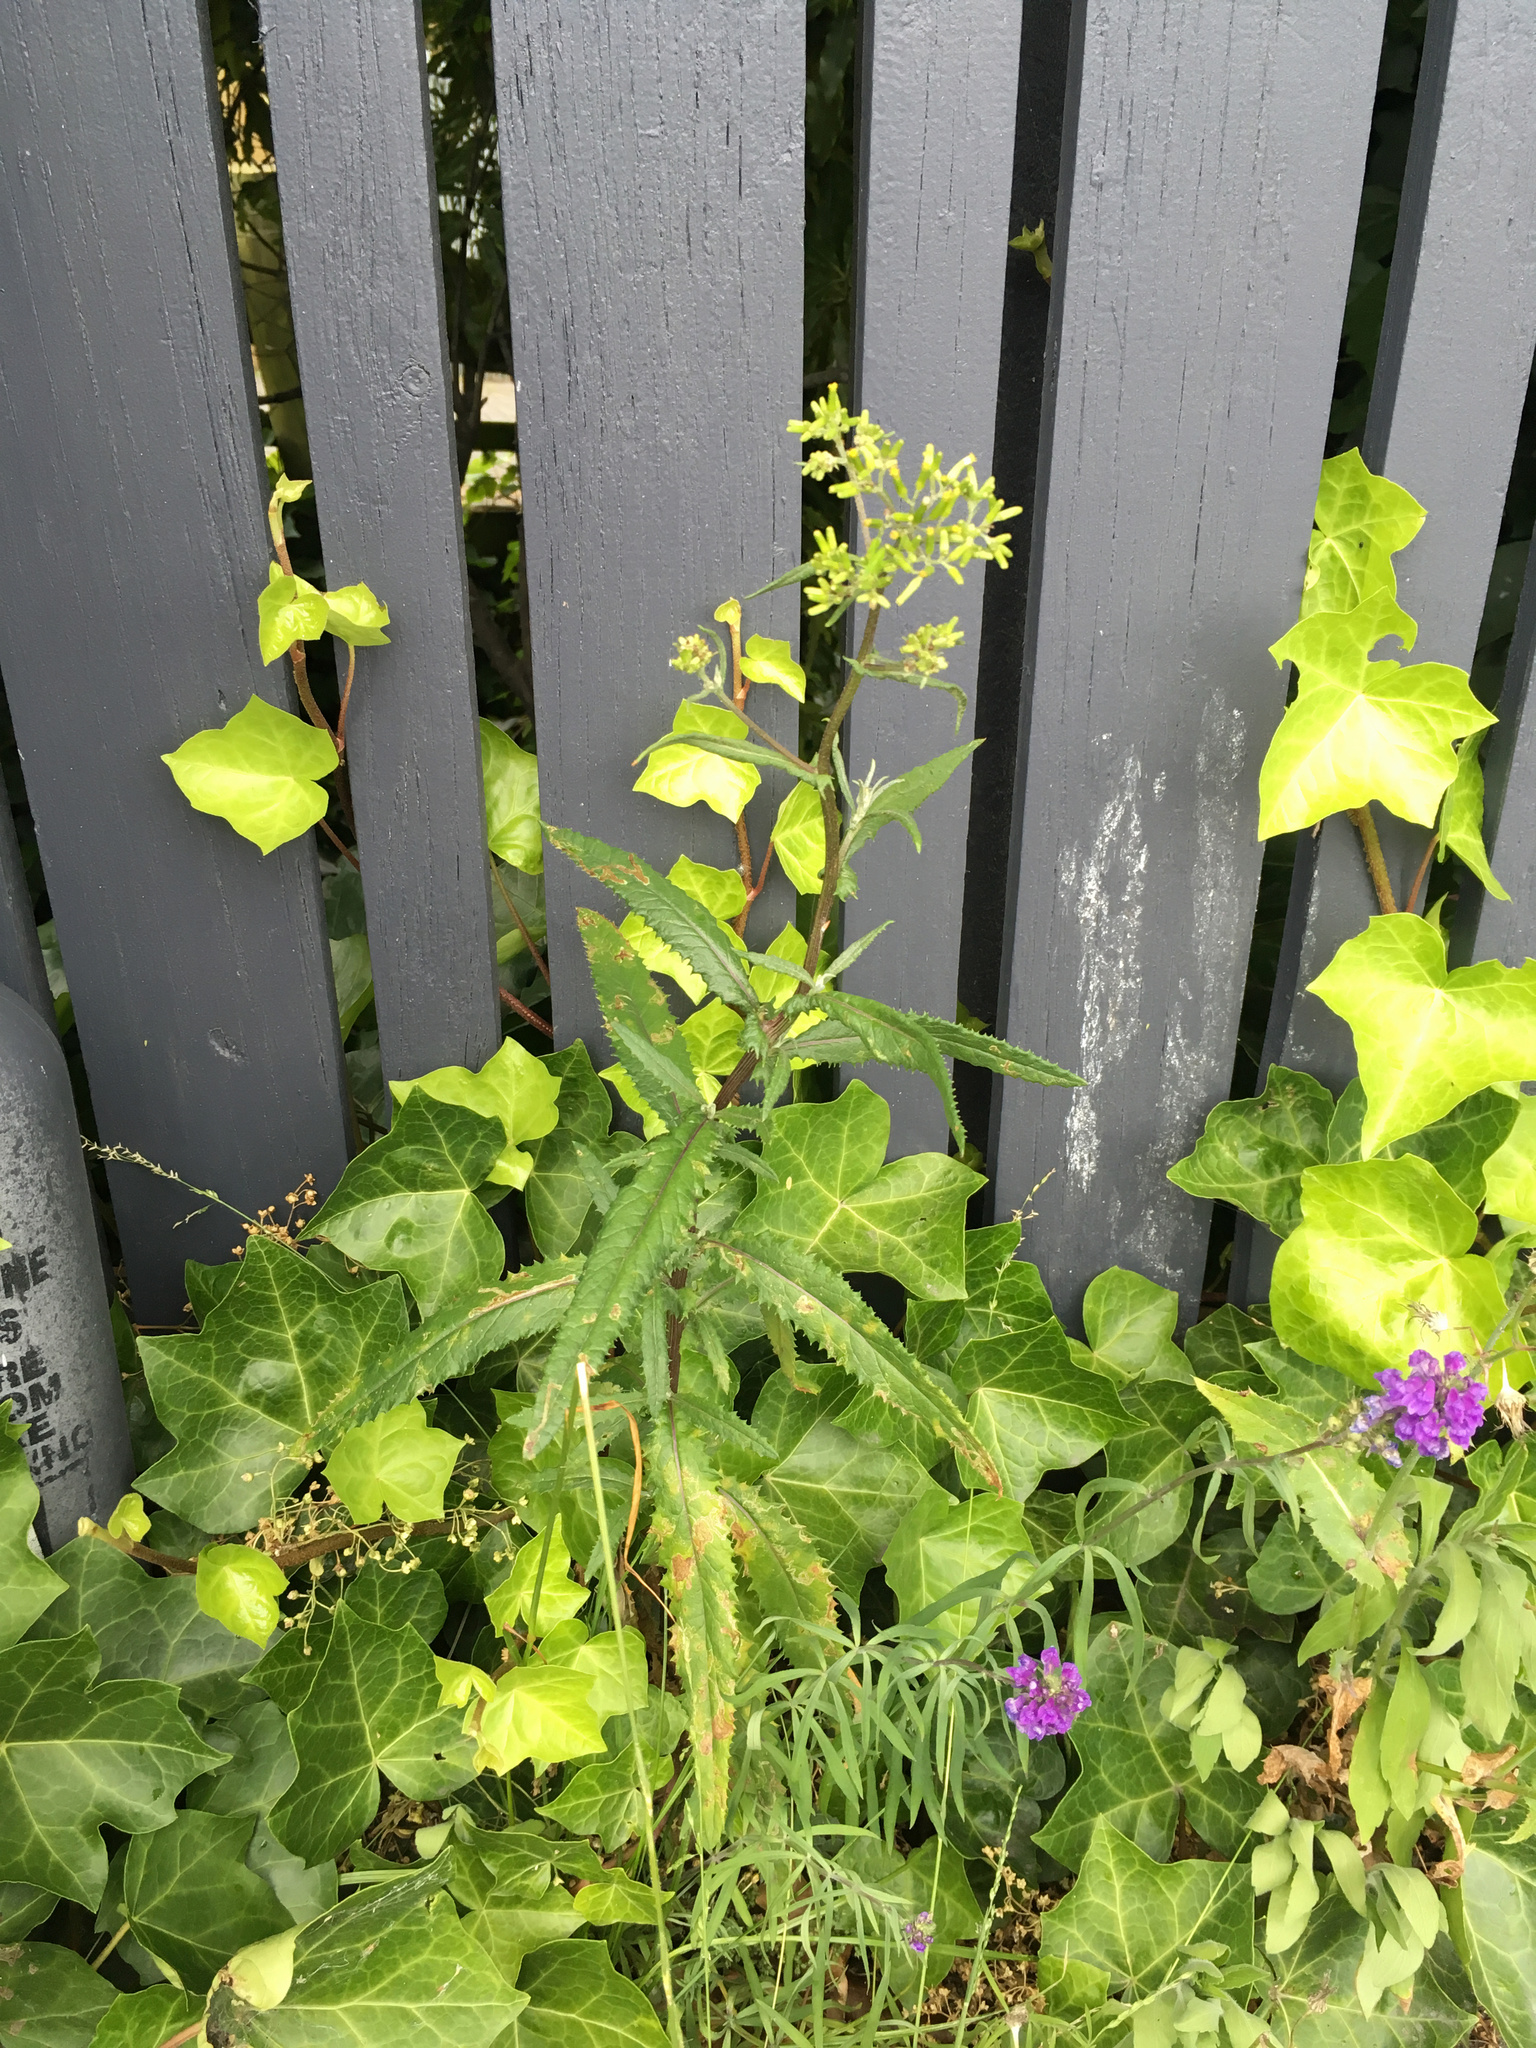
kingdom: Plantae
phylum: Tracheophyta
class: Magnoliopsida
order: Asterales
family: Asteraceae
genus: Senecio
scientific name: Senecio minimus
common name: Toothed fireweed
